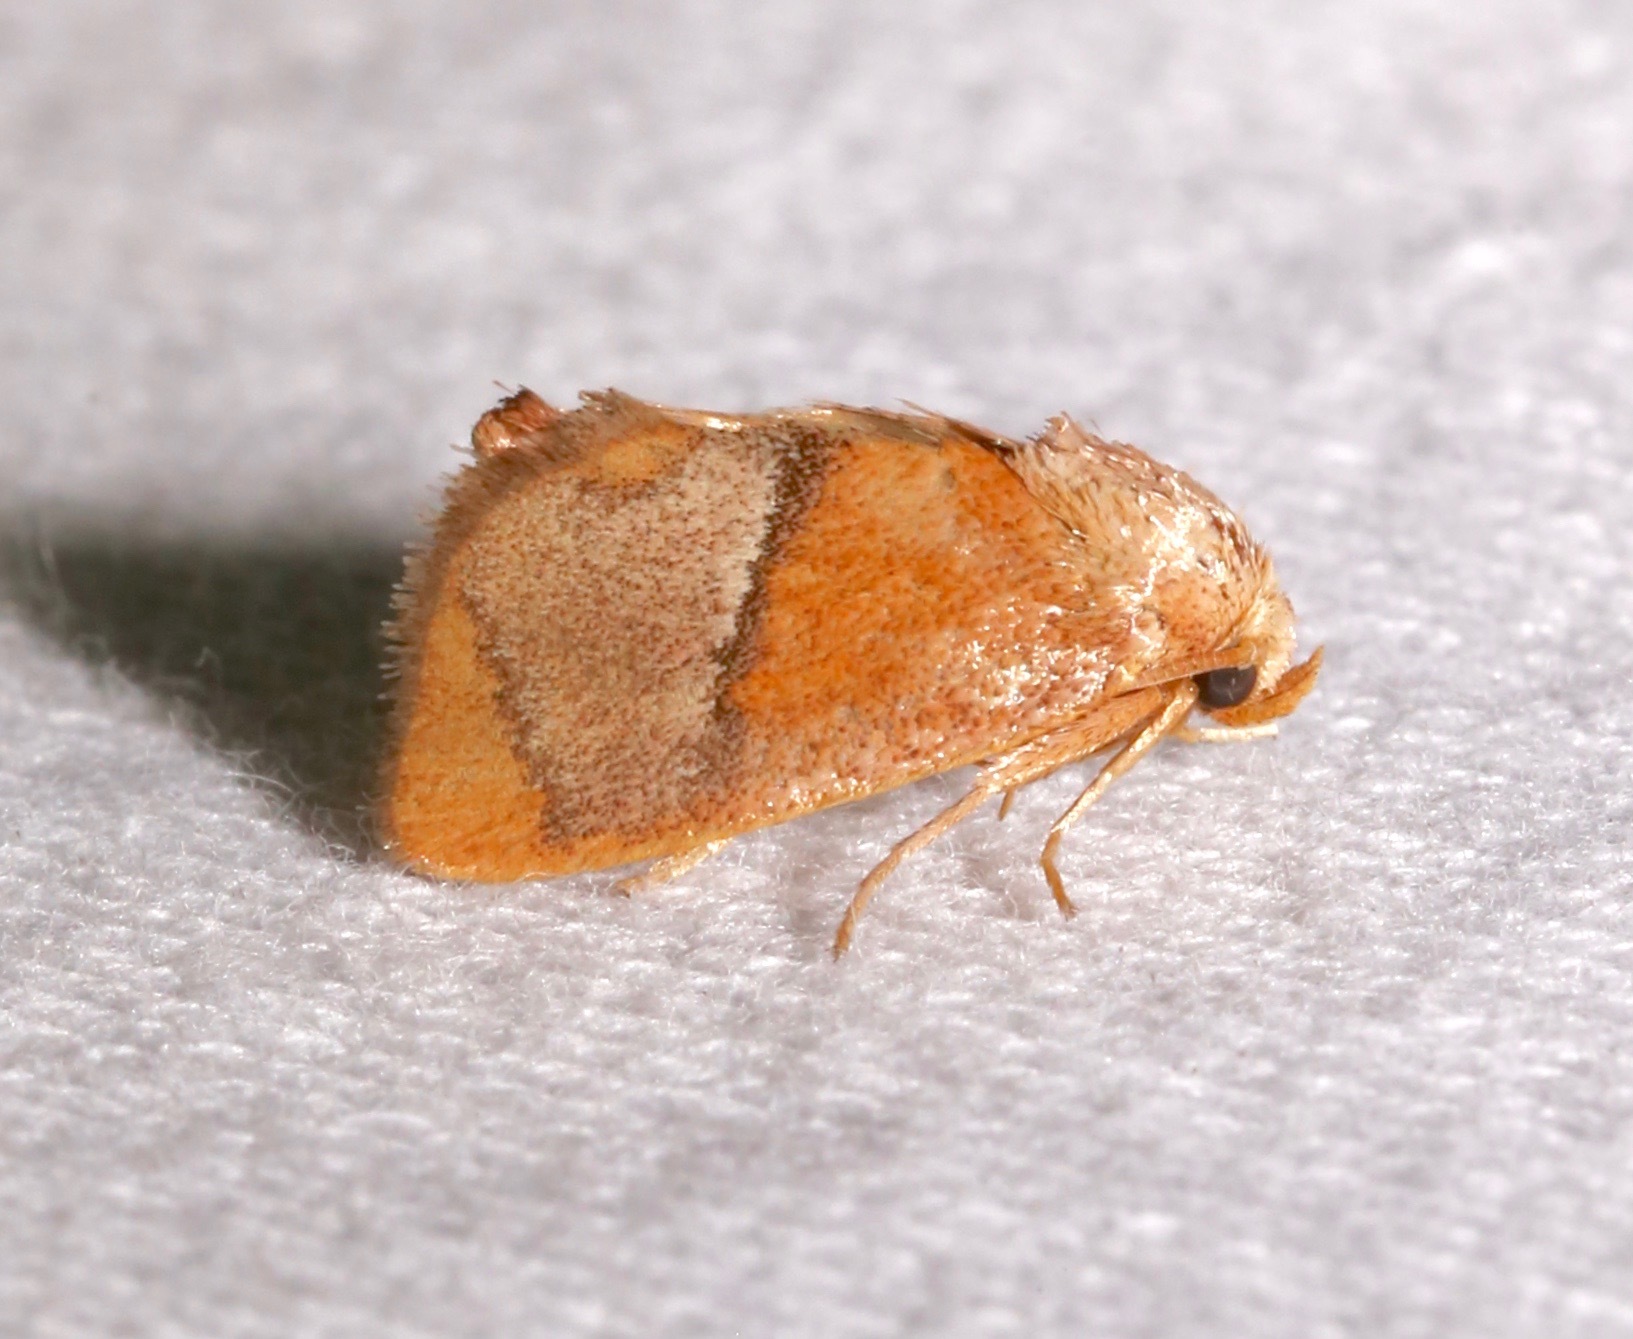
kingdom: Animalia
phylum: Arthropoda
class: Insecta
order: Lepidoptera
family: Limacodidae
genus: Apoda
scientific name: Apoda rectilinea
